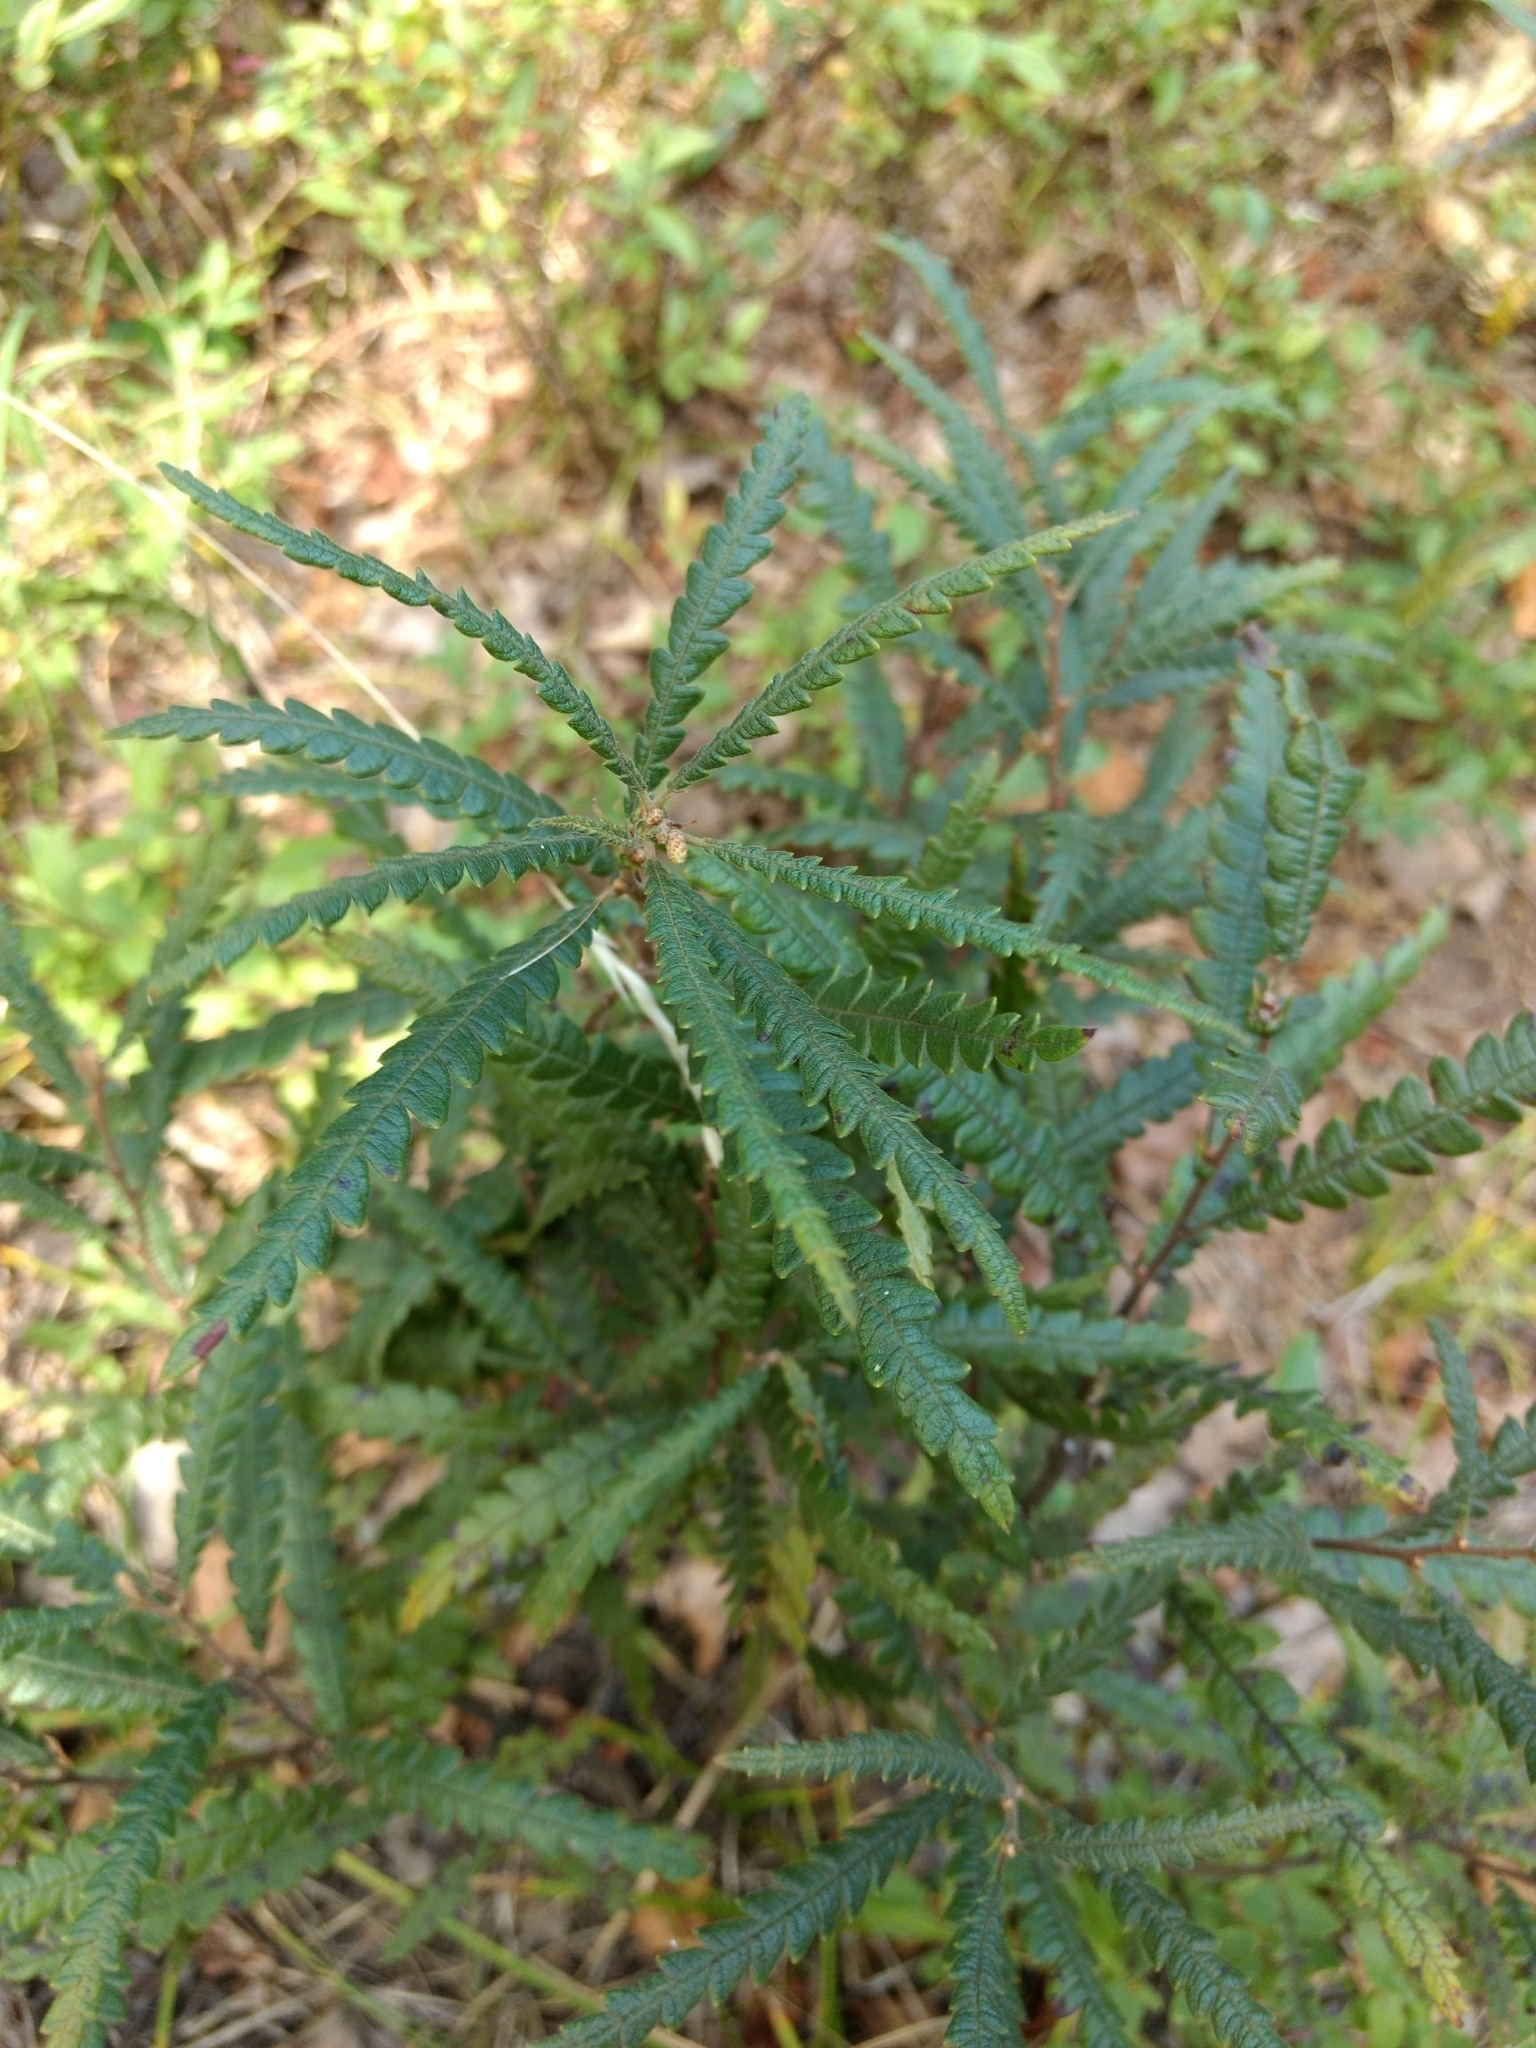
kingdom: Plantae
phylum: Tracheophyta
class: Magnoliopsida
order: Fagales
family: Myricaceae
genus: Comptonia
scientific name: Comptonia peregrina
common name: Sweet-fern
